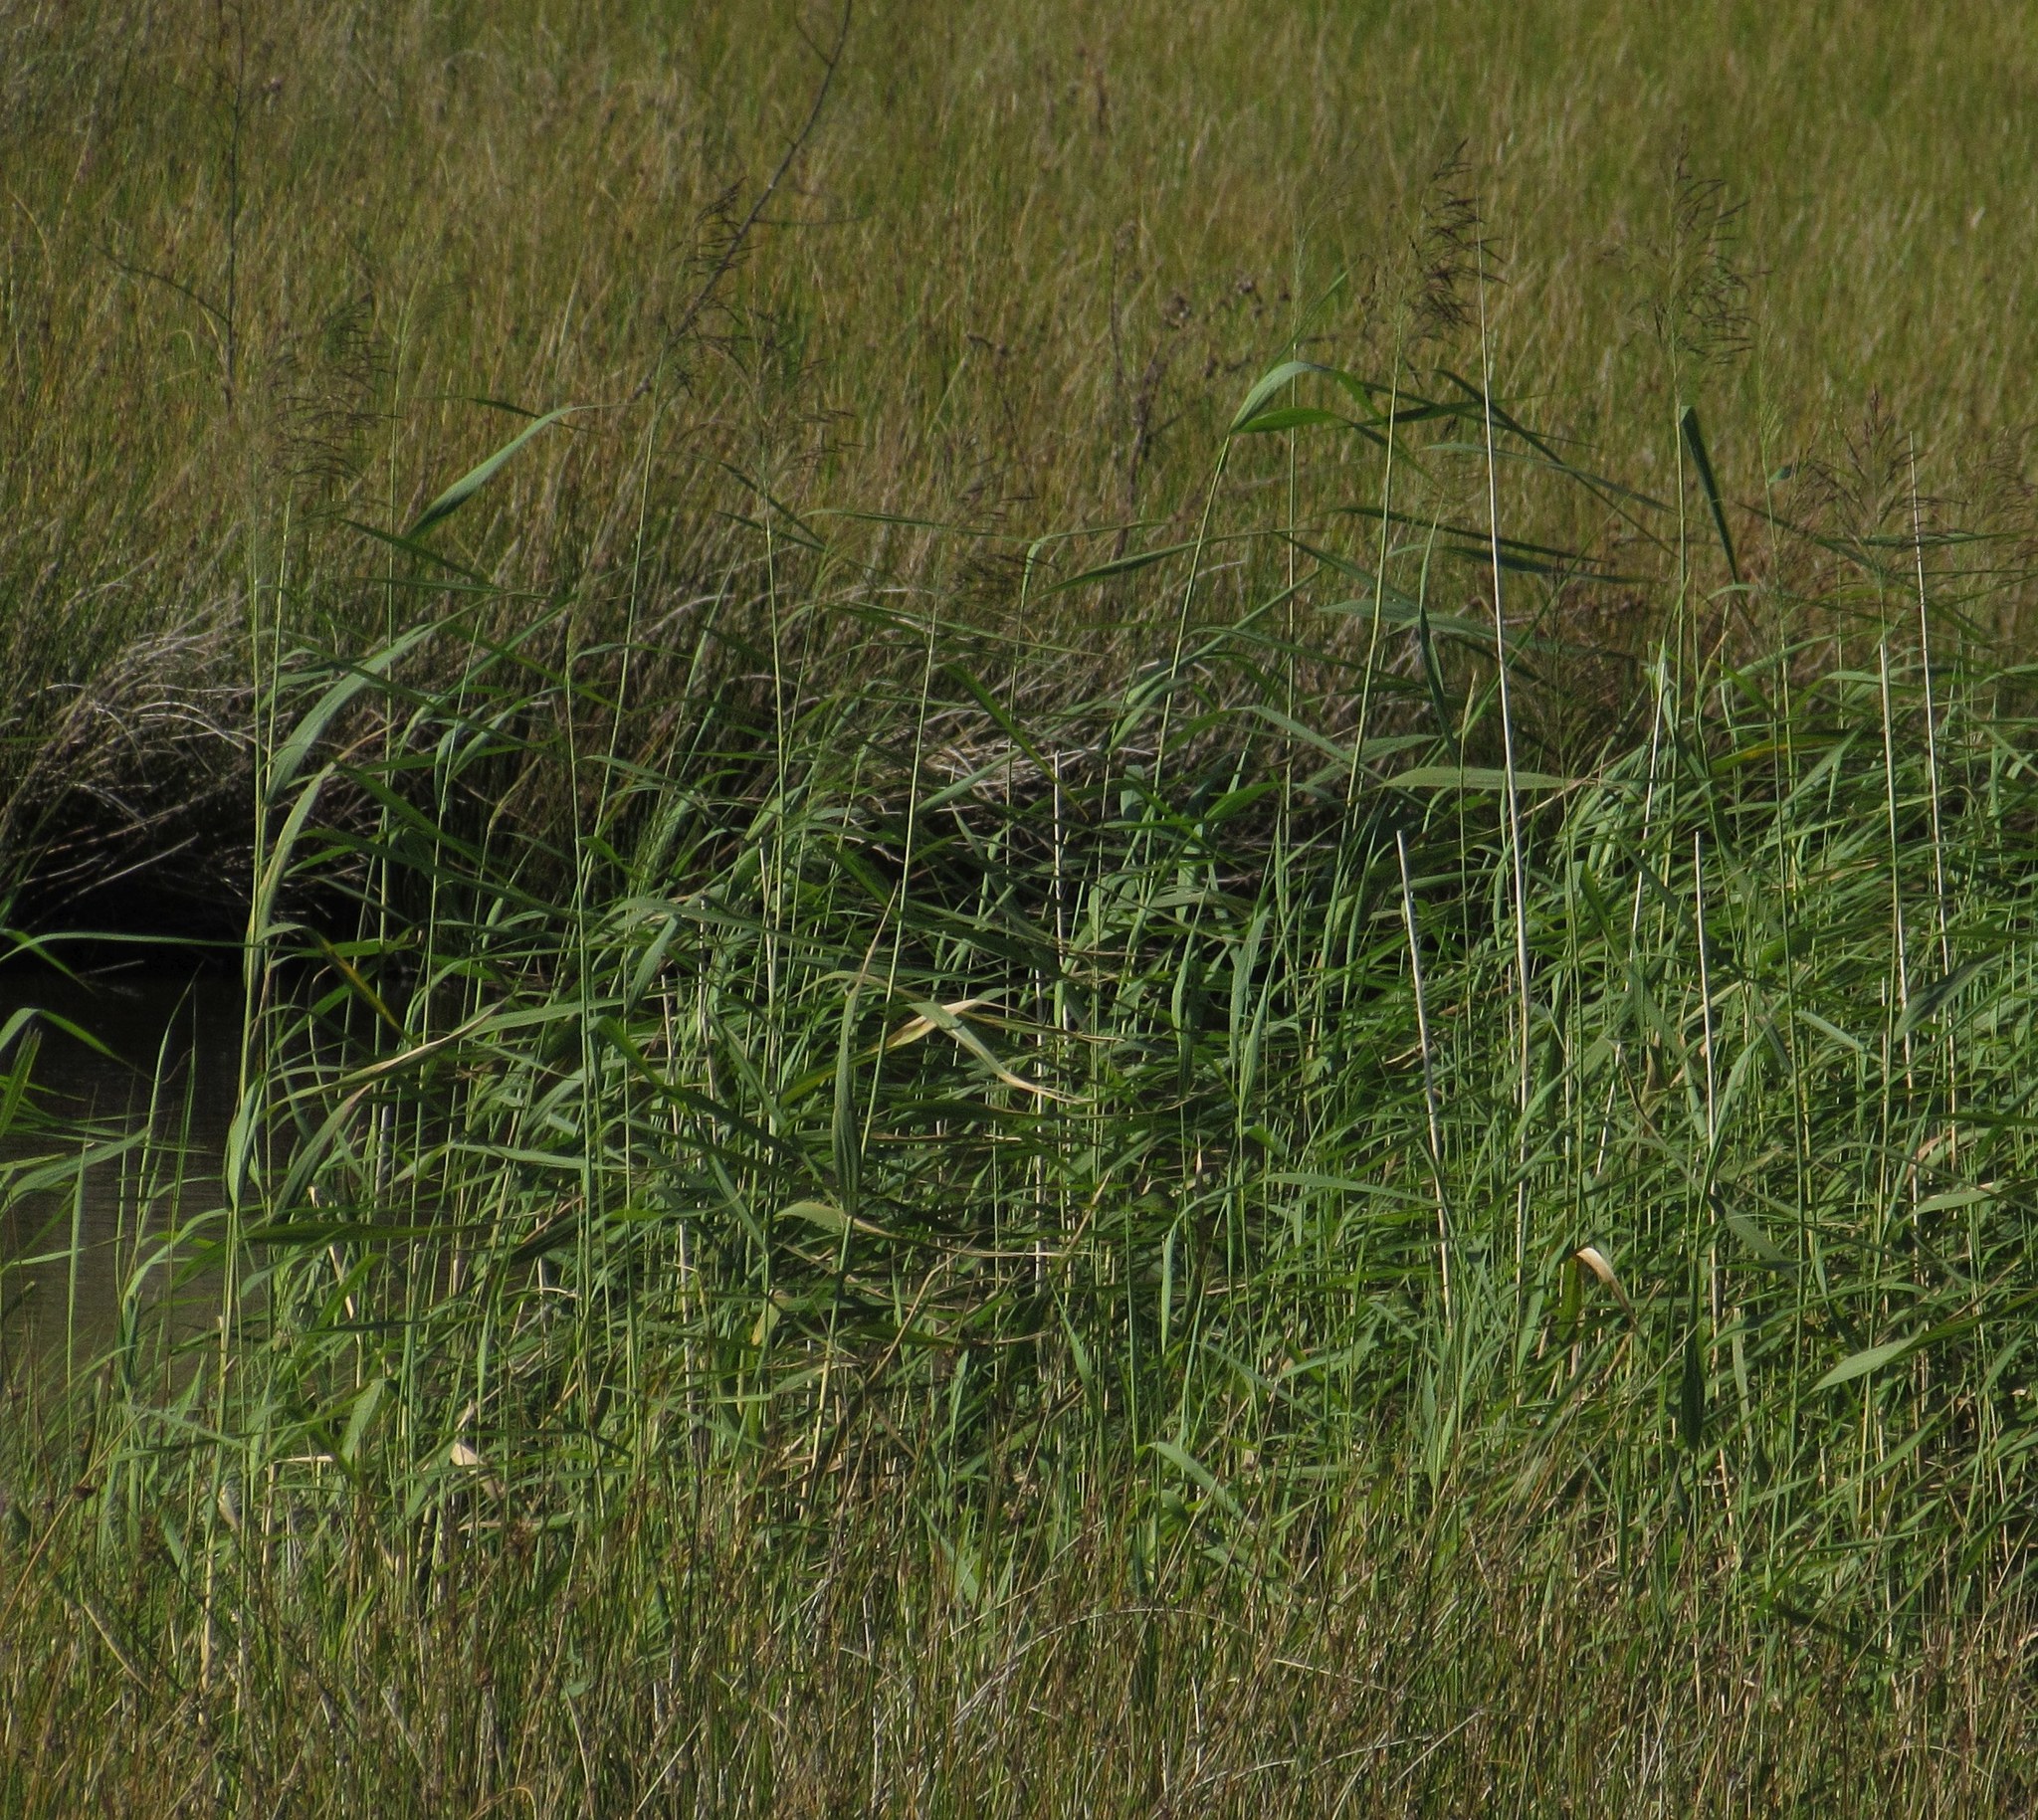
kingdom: Plantae
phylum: Tracheophyta
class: Liliopsida
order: Poales
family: Poaceae
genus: Phragmites
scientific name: Phragmites australis
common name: Common reed
